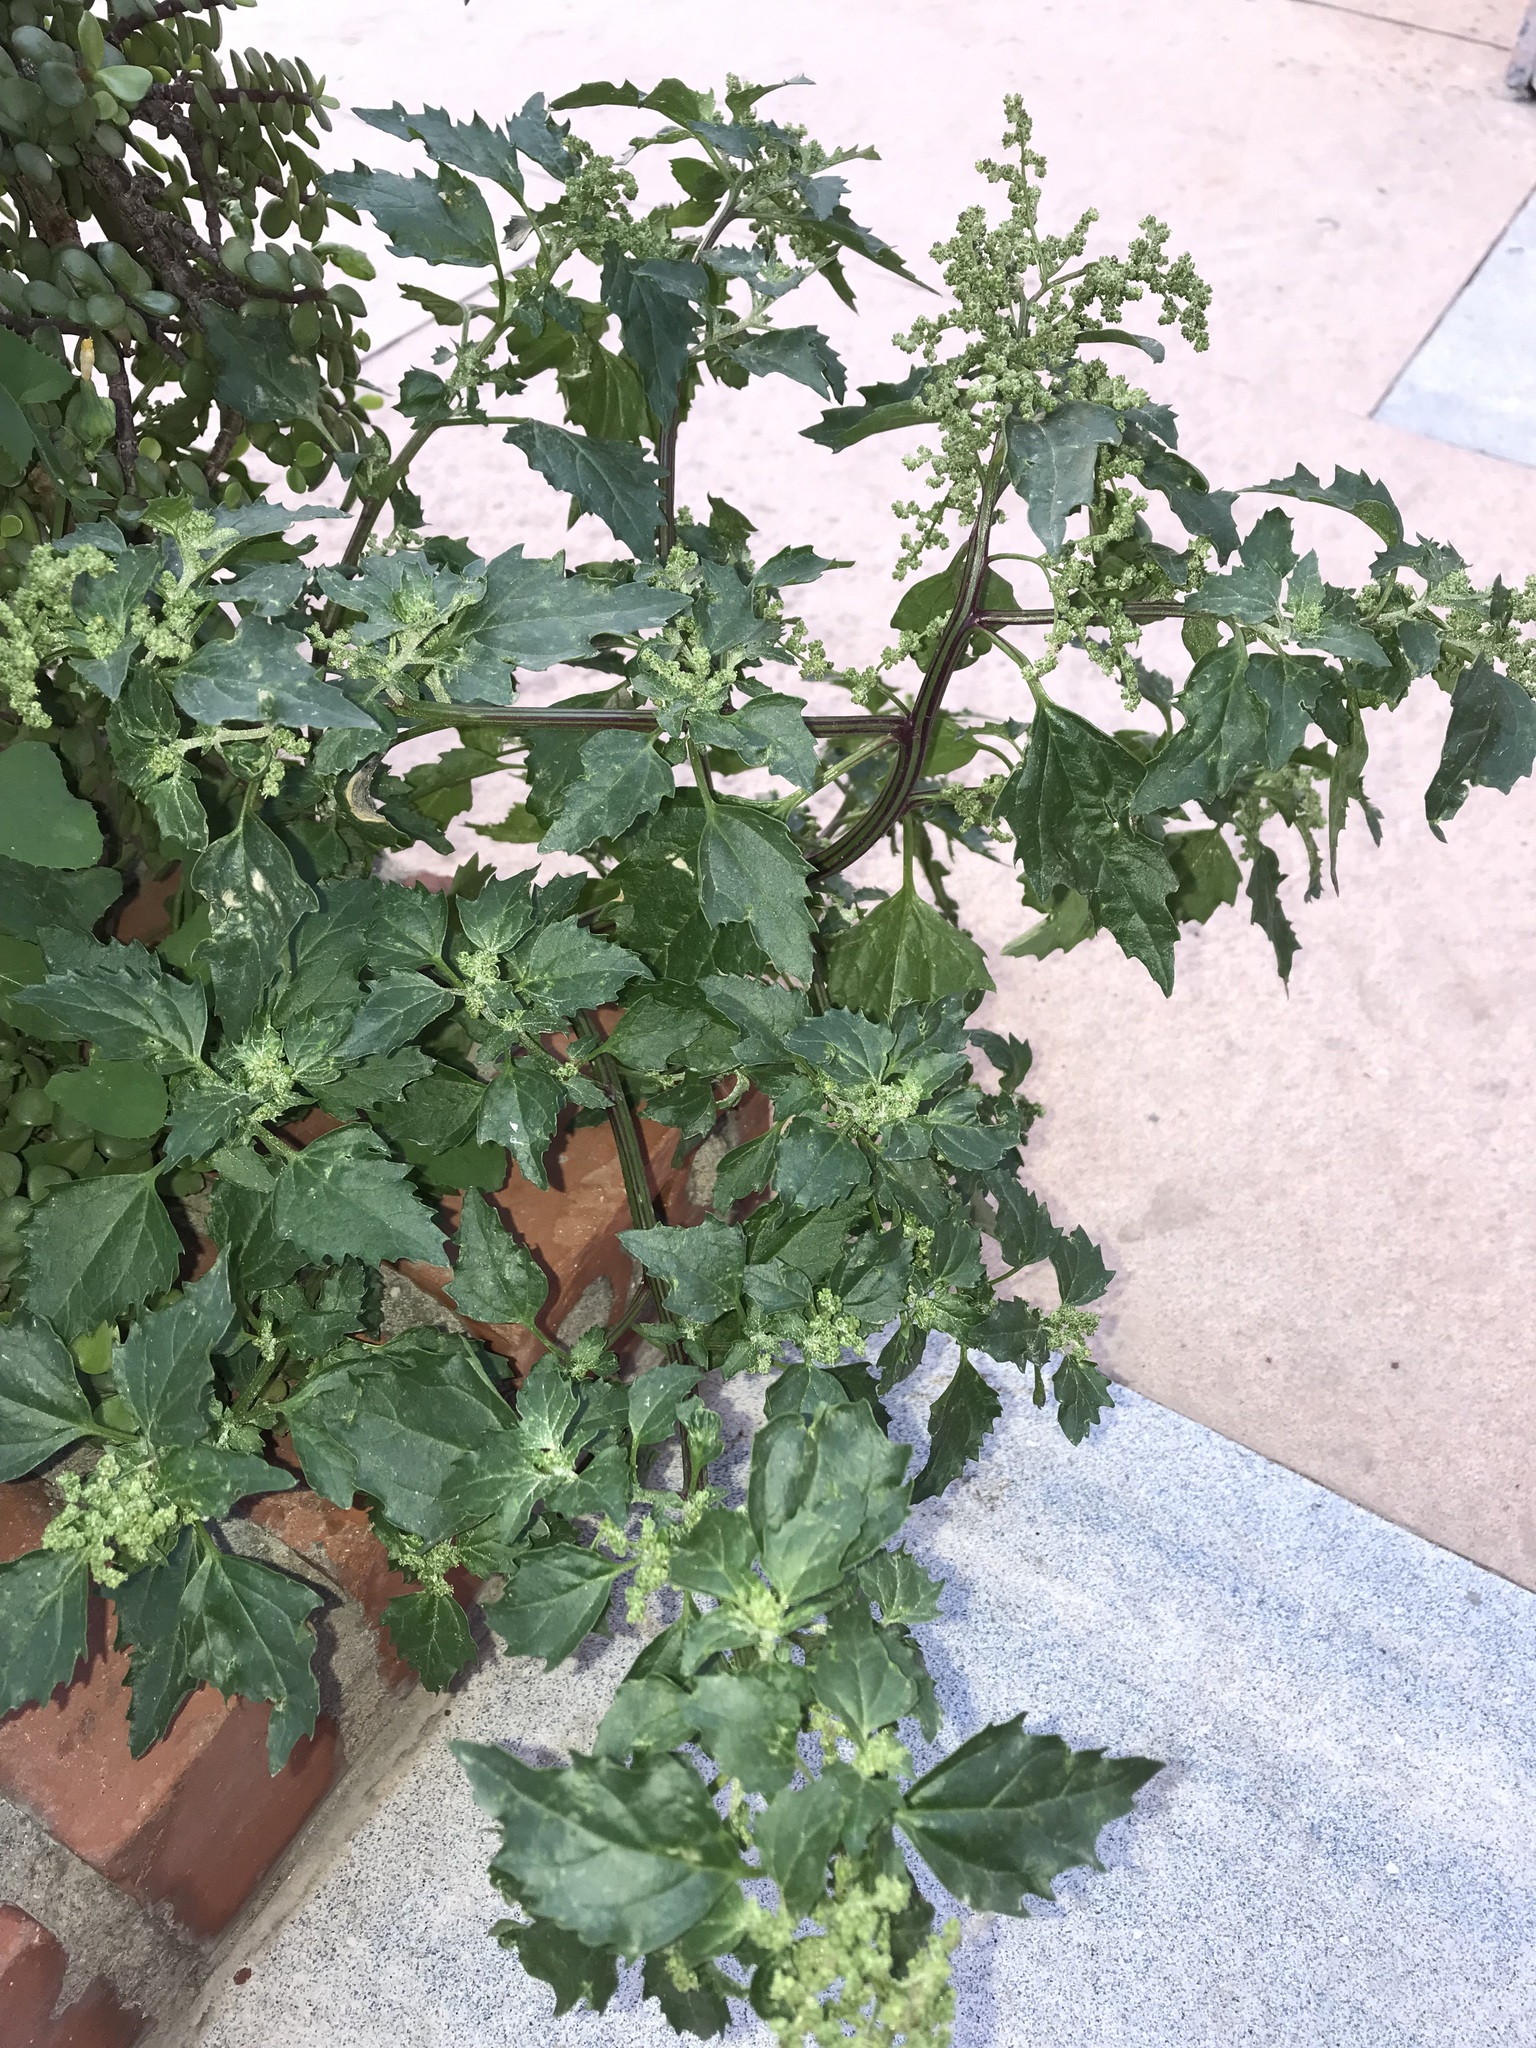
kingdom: Plantae
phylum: Tracheophyta
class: Magnoliopsida
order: Caryophyllales
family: Amaranthaceae
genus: Chenopodiastrum
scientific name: Chenopodiastrum murale
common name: Sowbane
